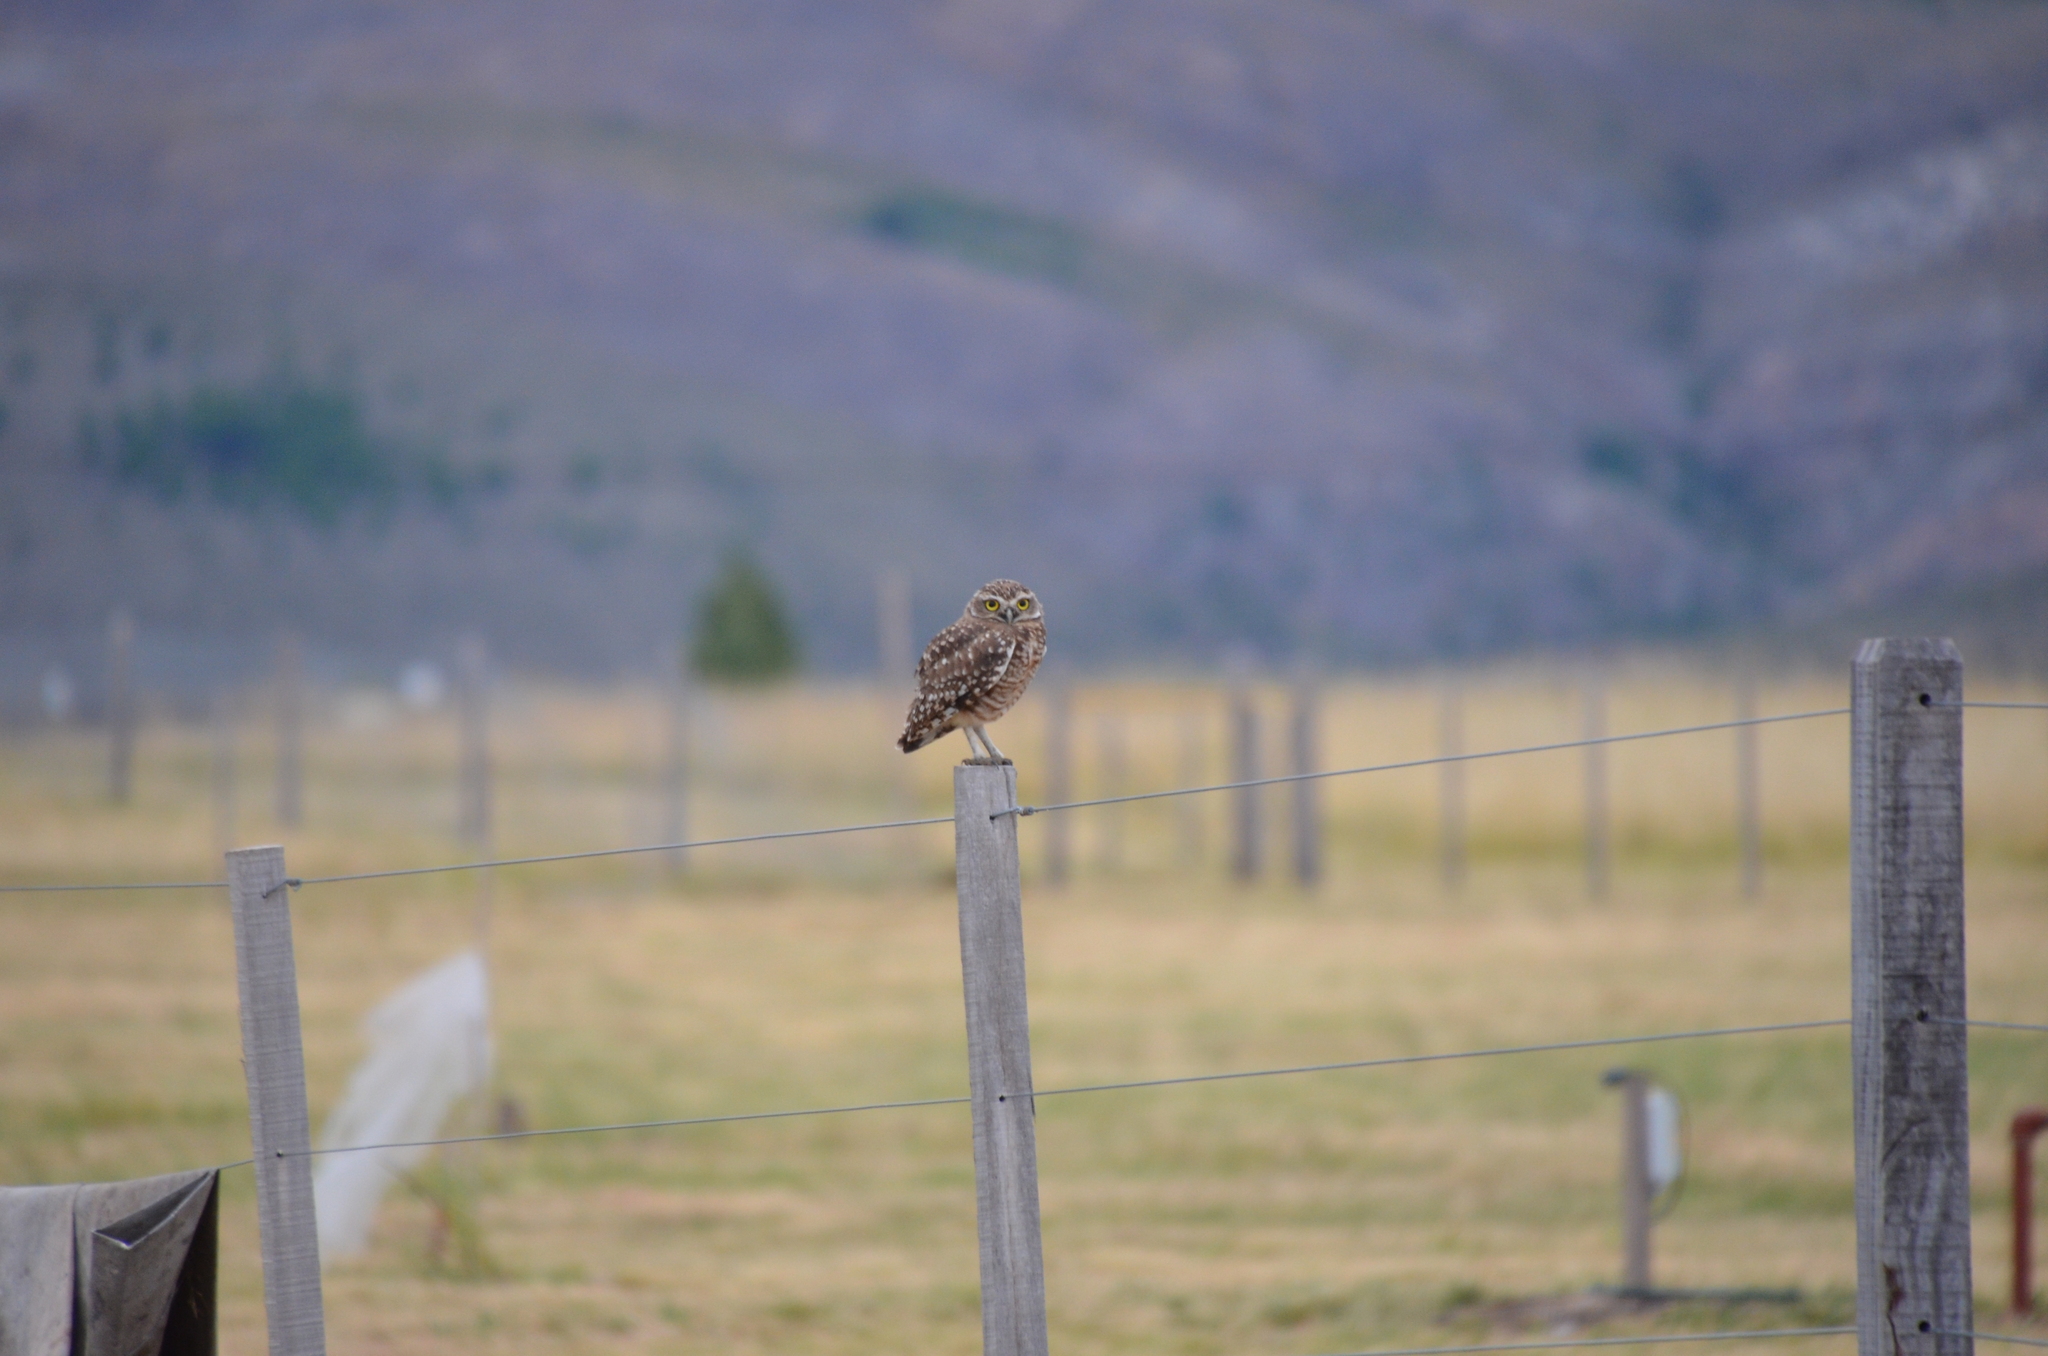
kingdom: Animalia
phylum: Chordata
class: Aves
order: Strigiformes
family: Strigidae
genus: Athene
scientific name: Athene cunicularia
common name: Burrowing owl
